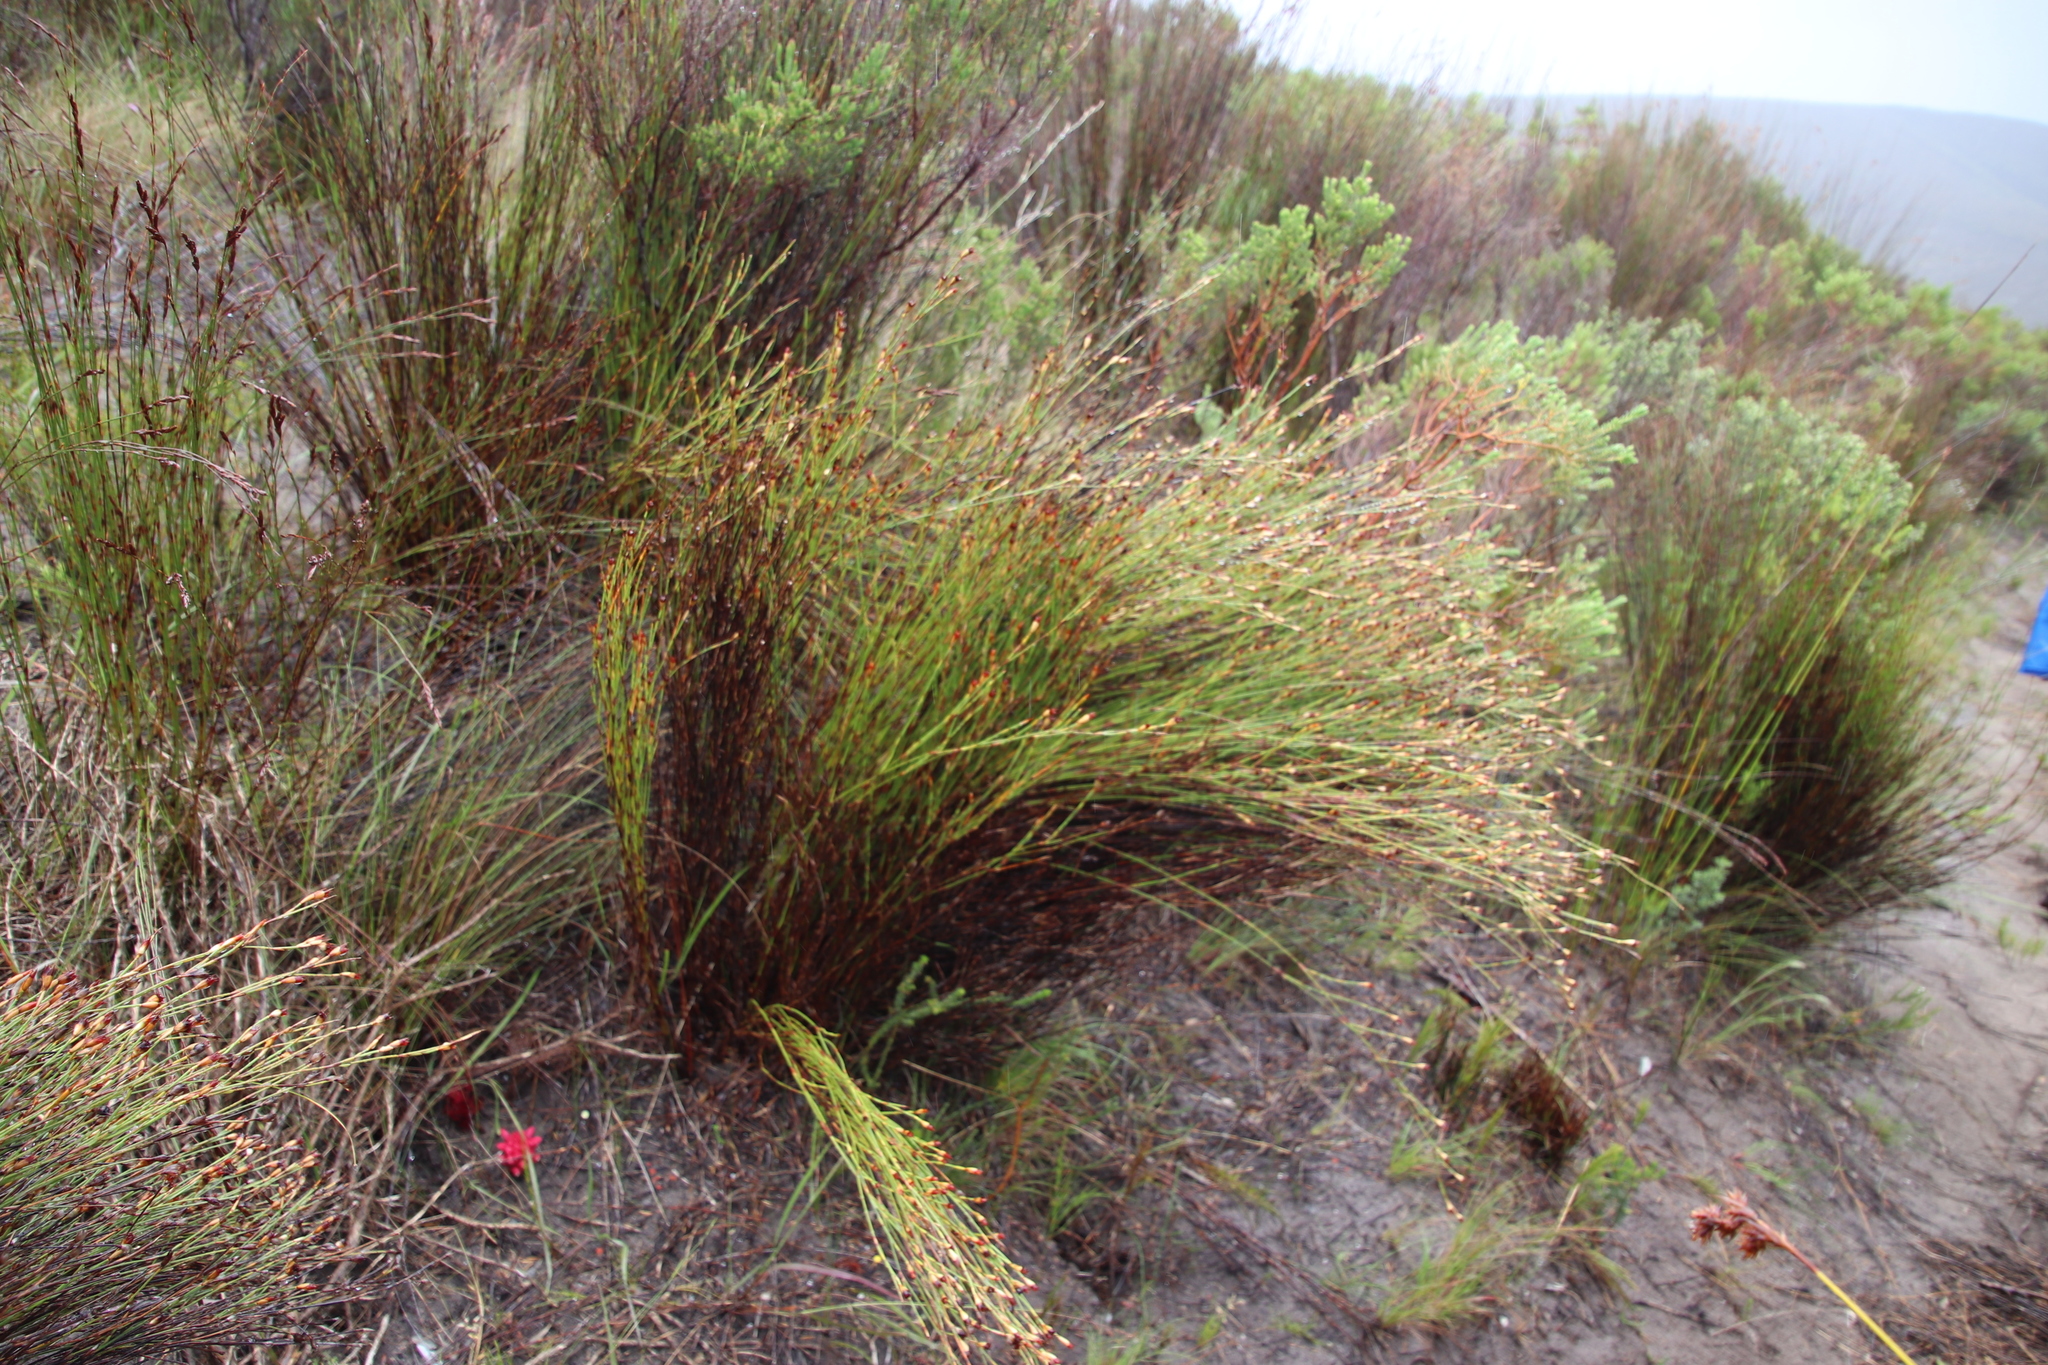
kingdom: Plantae
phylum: Tracheophyta
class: Magnoliopsida
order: Lamiales
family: Orobanchaceae
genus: Hyobanche
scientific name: Hyobanche sanguinea
